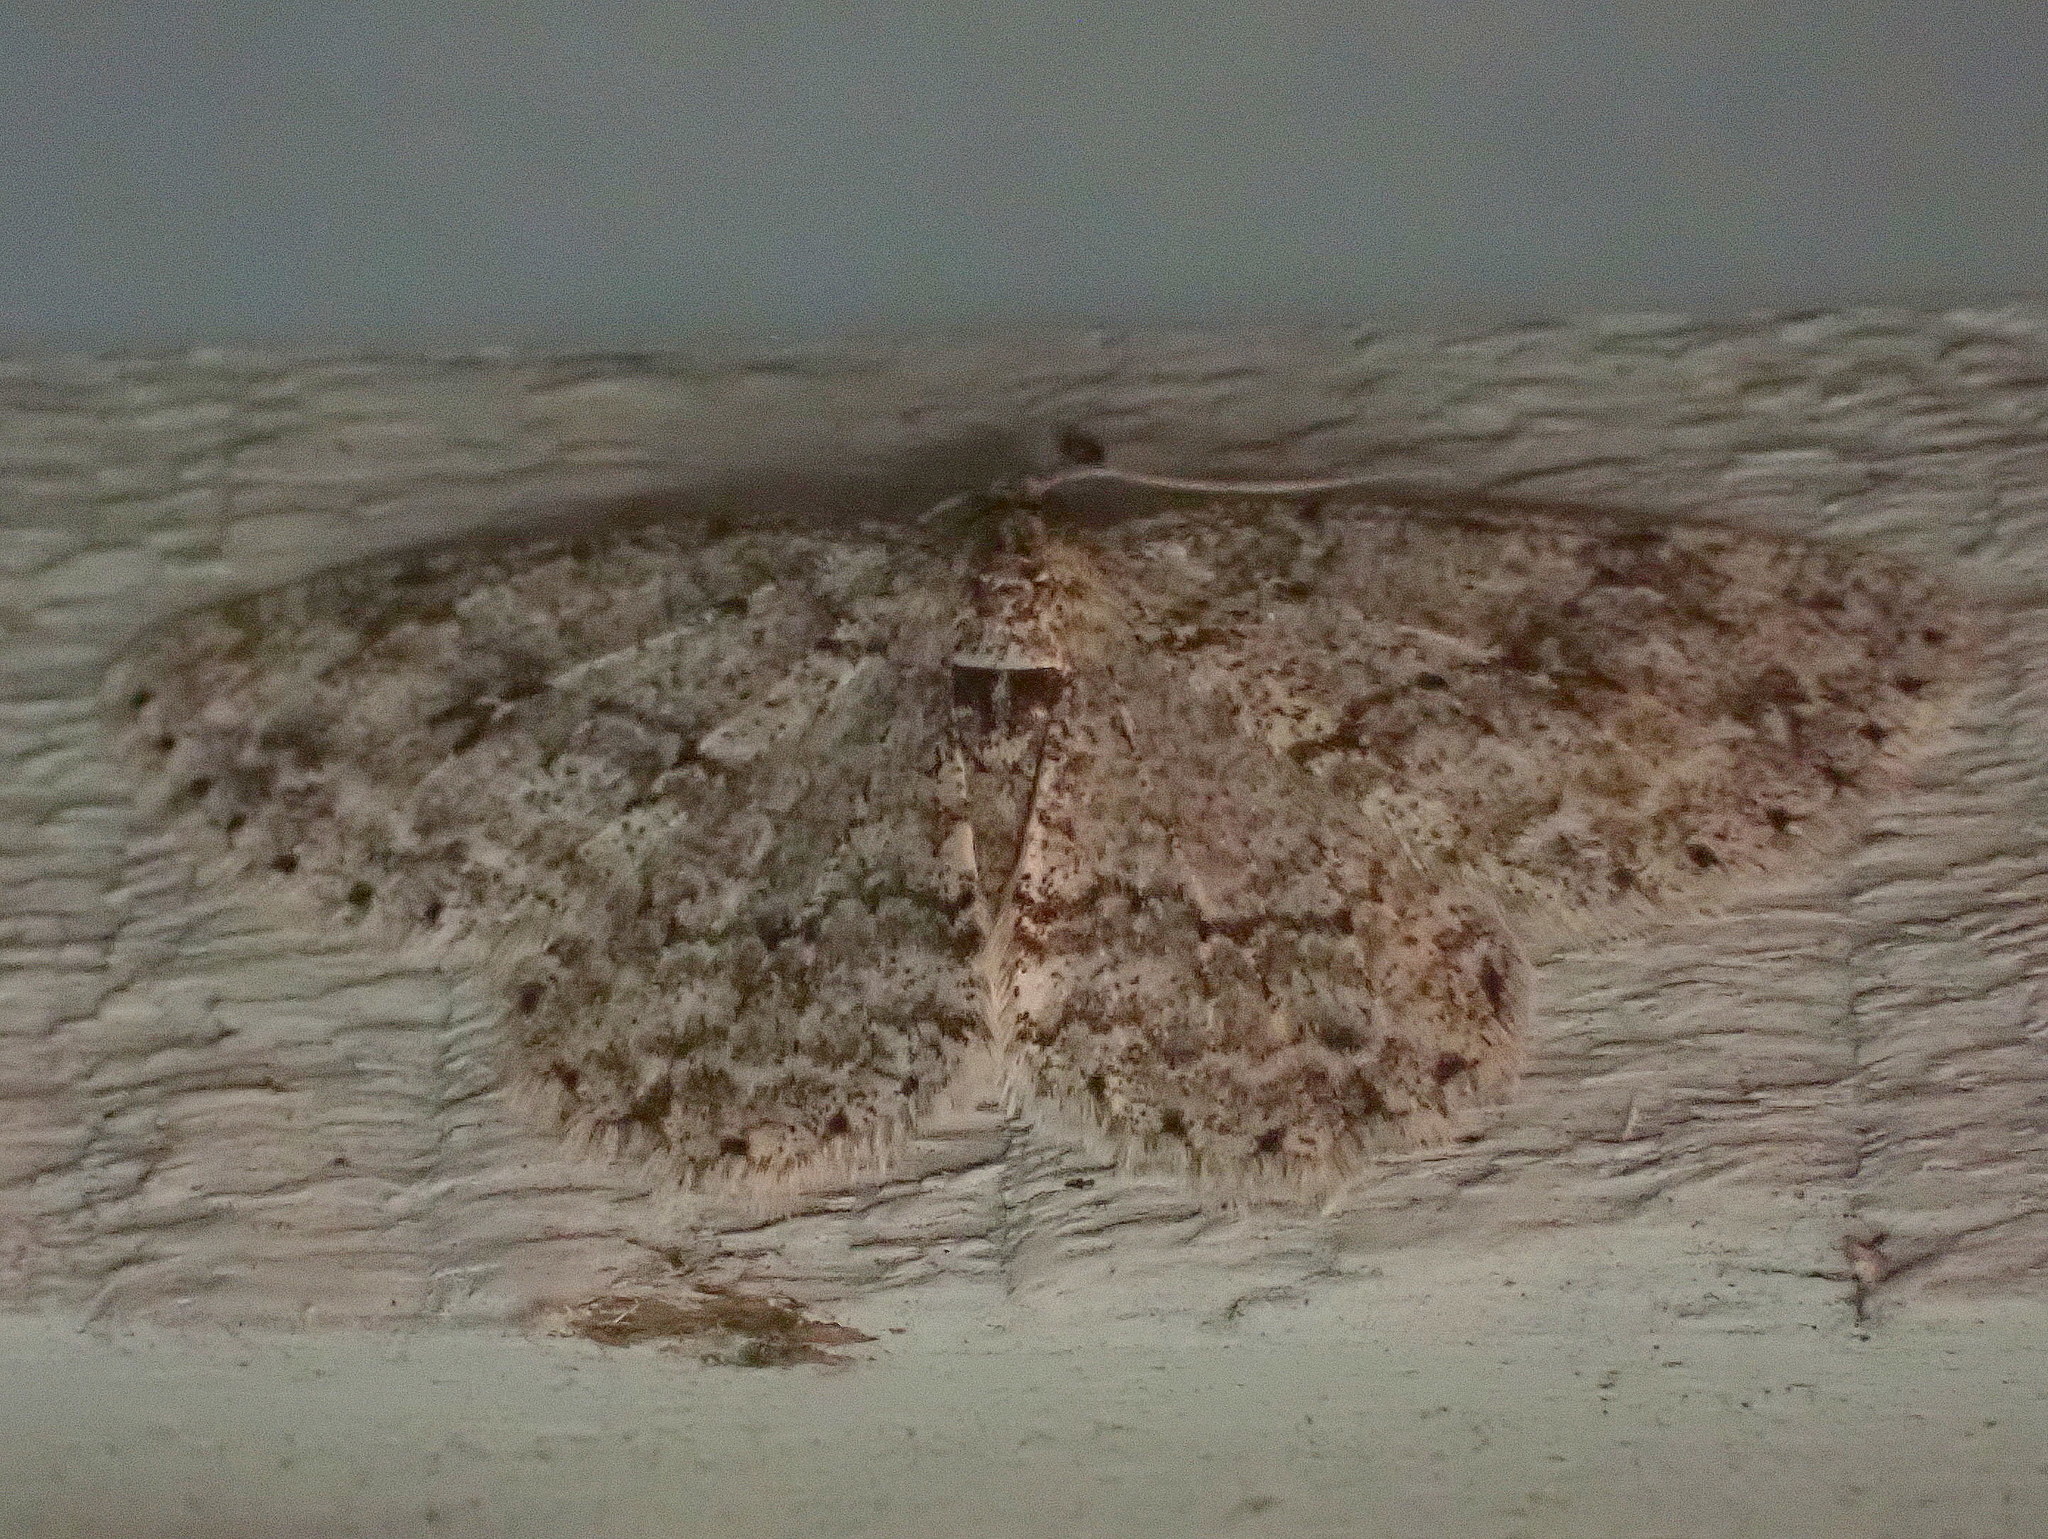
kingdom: Animalia
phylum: Arthropoda
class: Insecta
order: Lepidoptera
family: Geometridae
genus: Ectropis
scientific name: Ectropis crepuscularia
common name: Engrailed
